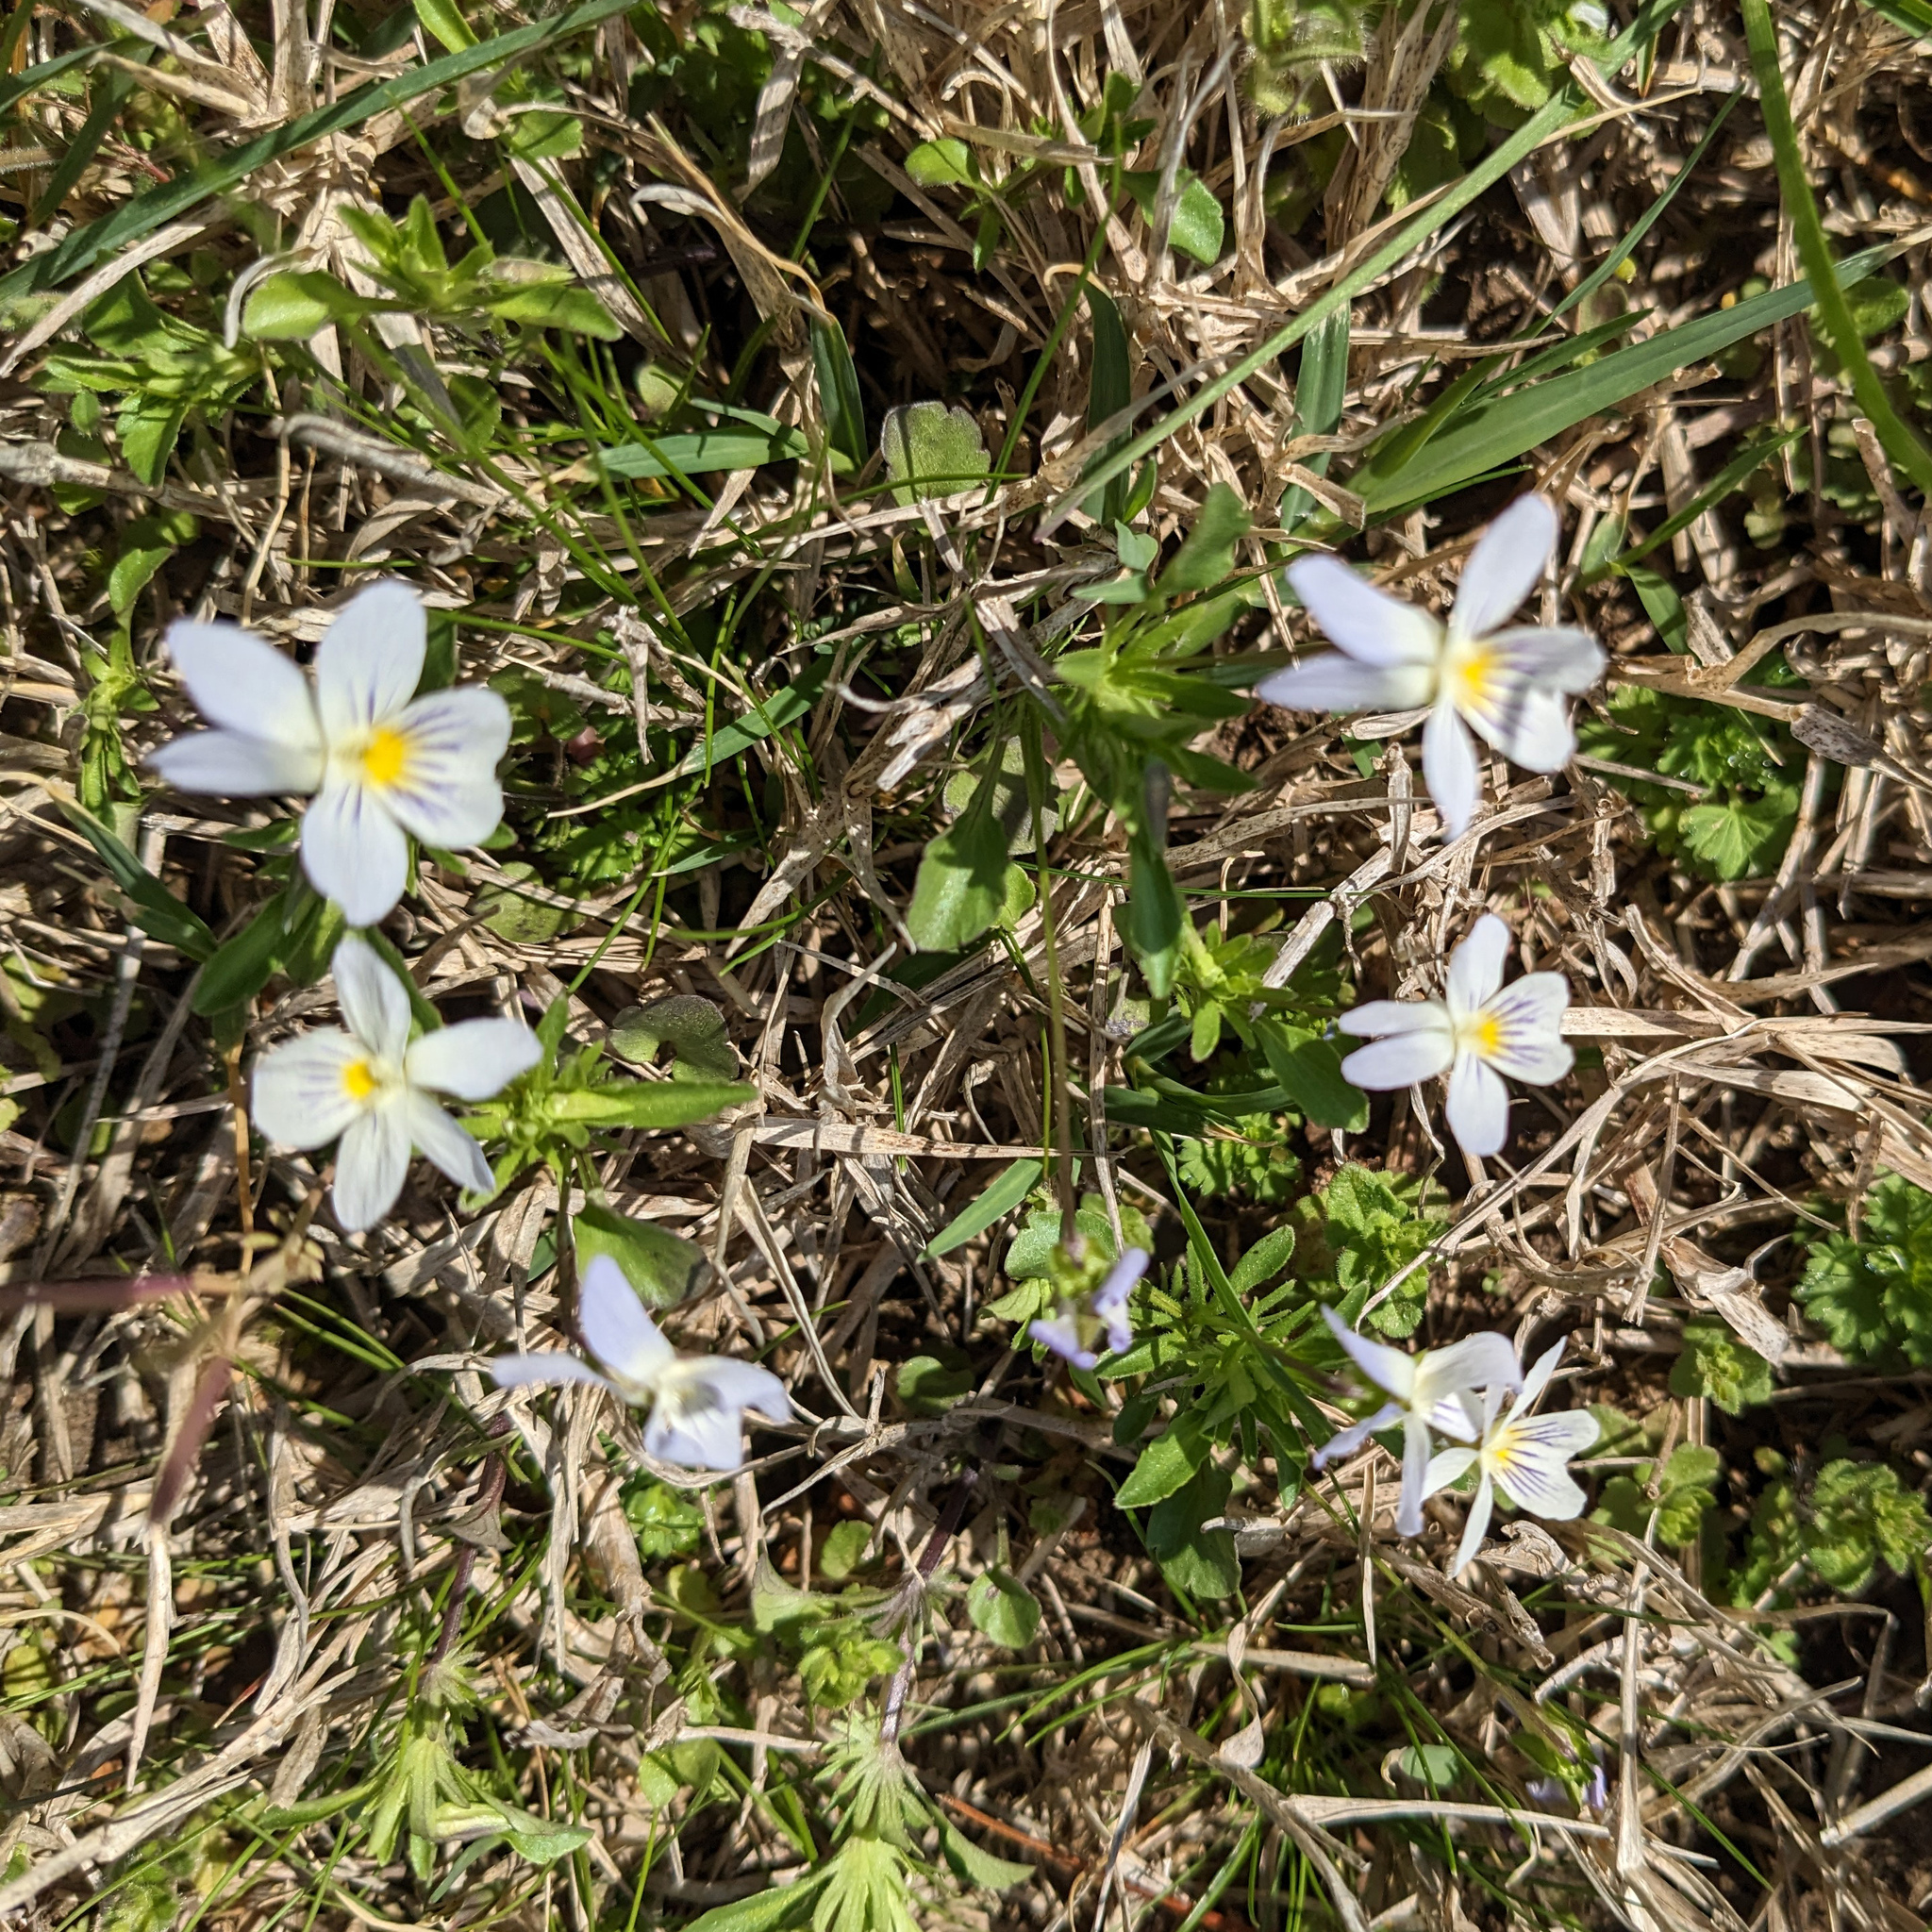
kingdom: Plantae
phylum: Tracheophyta
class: Magnoliopsida
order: Malpighiales
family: Violaceae
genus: Viola
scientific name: Viola rafinesquei
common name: American field pansy
